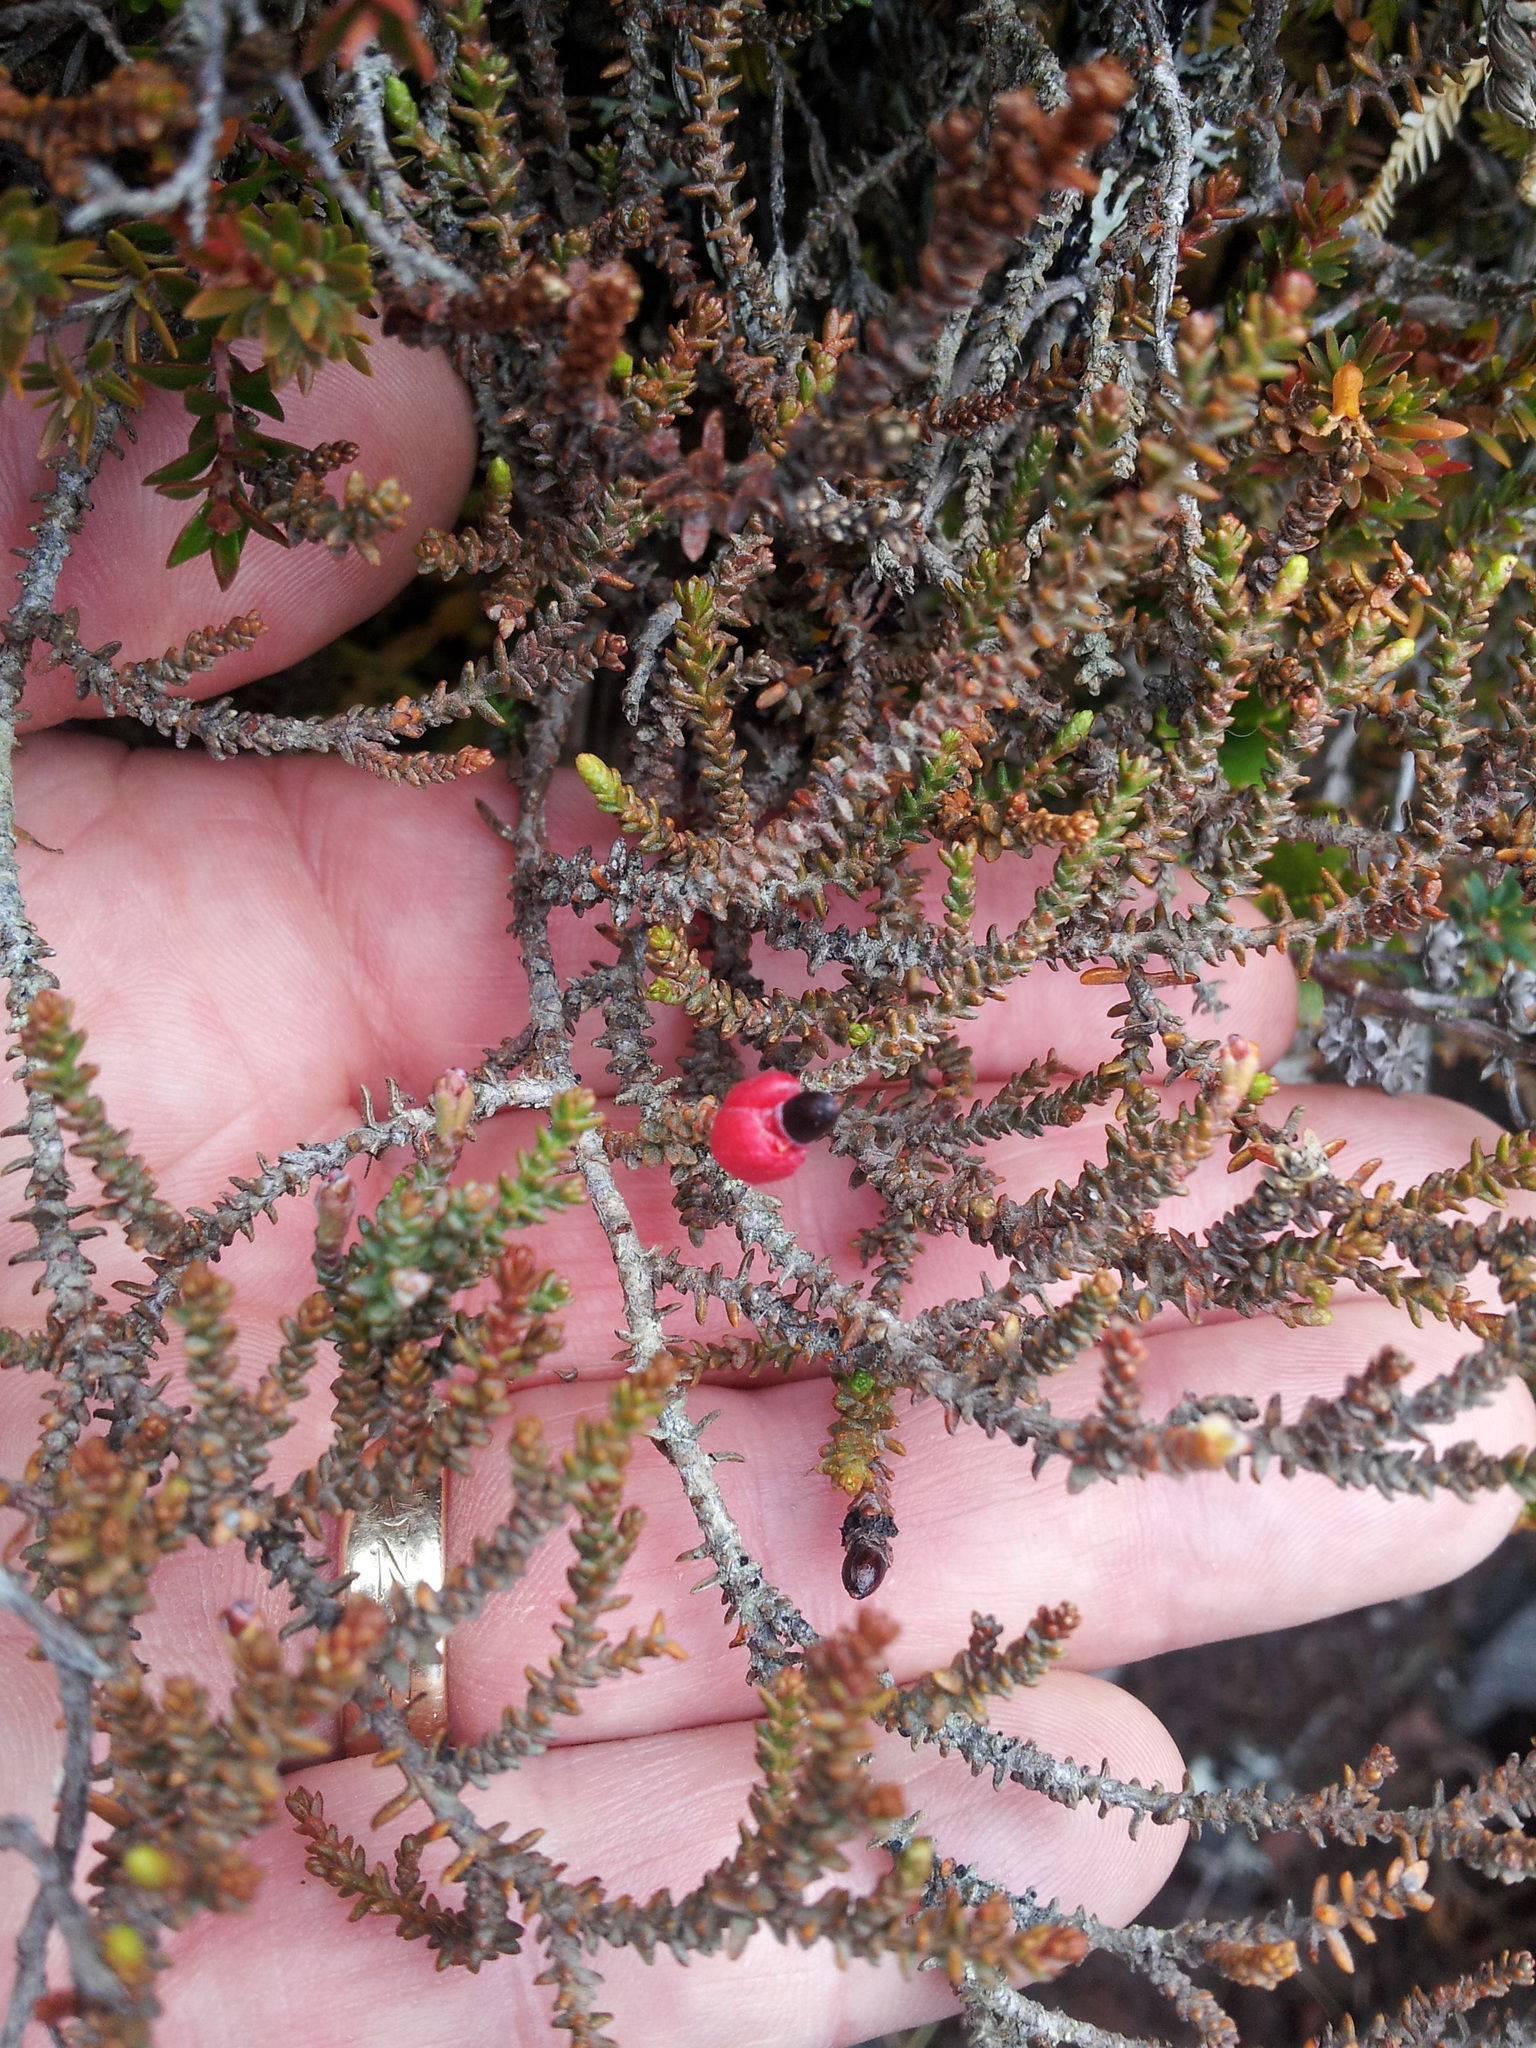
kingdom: Plantae
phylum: Tracheophyta
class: Pinopsida
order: Pinales
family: Podocarpaceae
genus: Lepidothamnus
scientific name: Lepidothamnus laxifolius
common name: Pygmy pine
